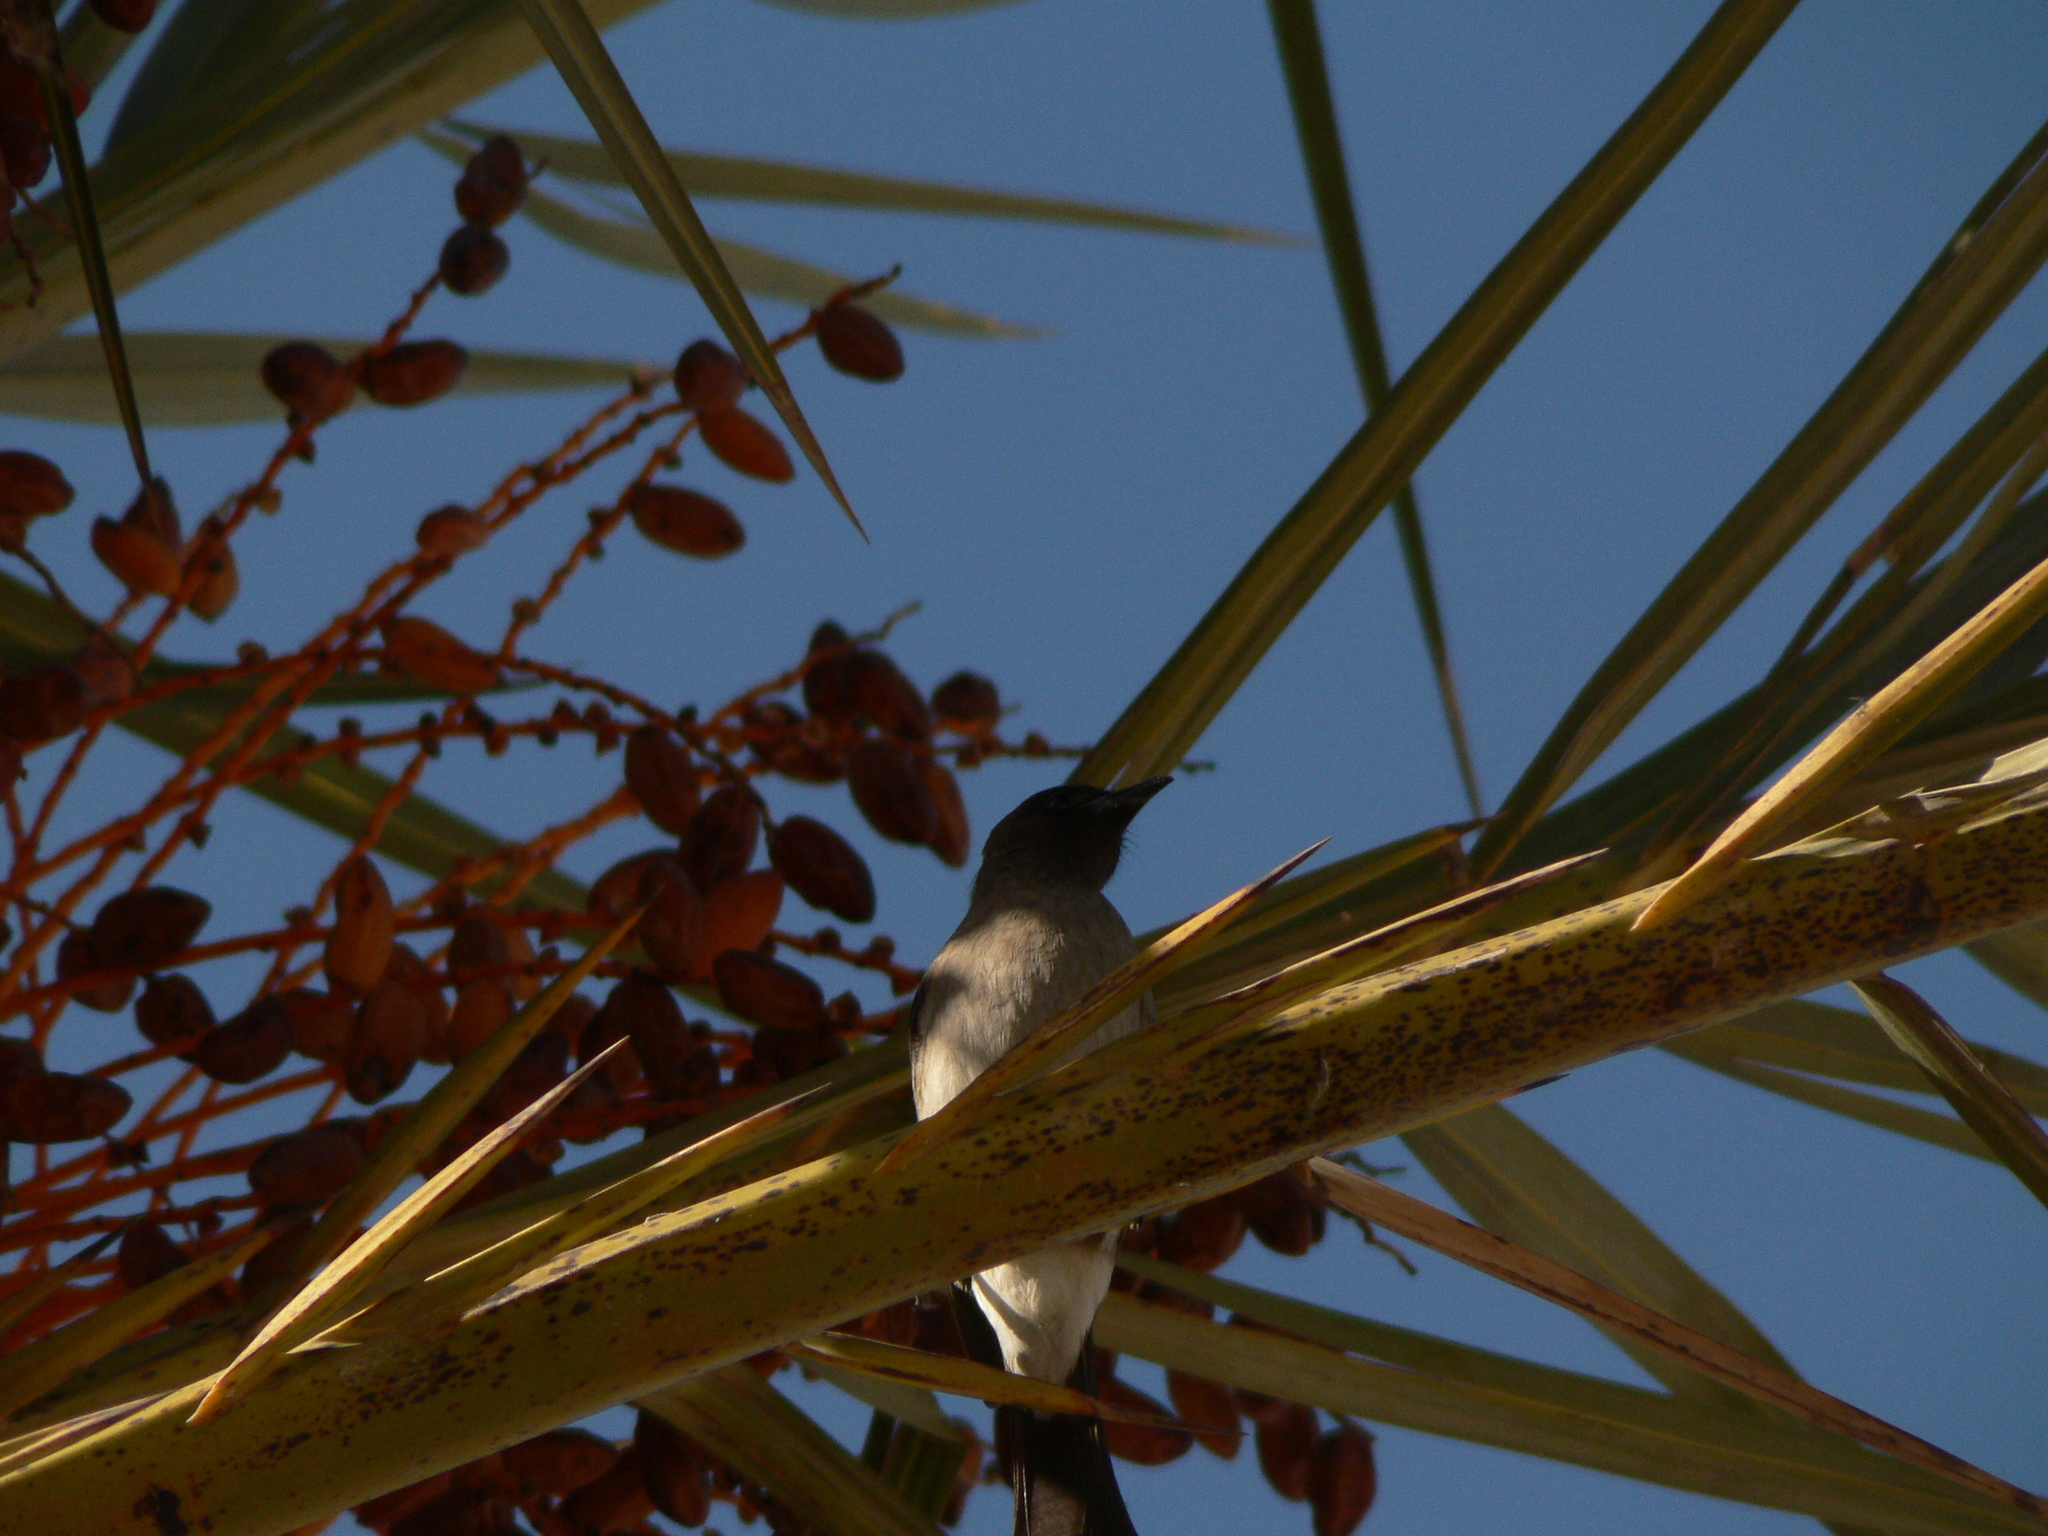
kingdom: Animalia
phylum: Chordata
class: Aves
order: Passeriformes
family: Pycnonotidae
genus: Pycnonotus
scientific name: Pycnonotus barbatus
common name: Common bulbul
